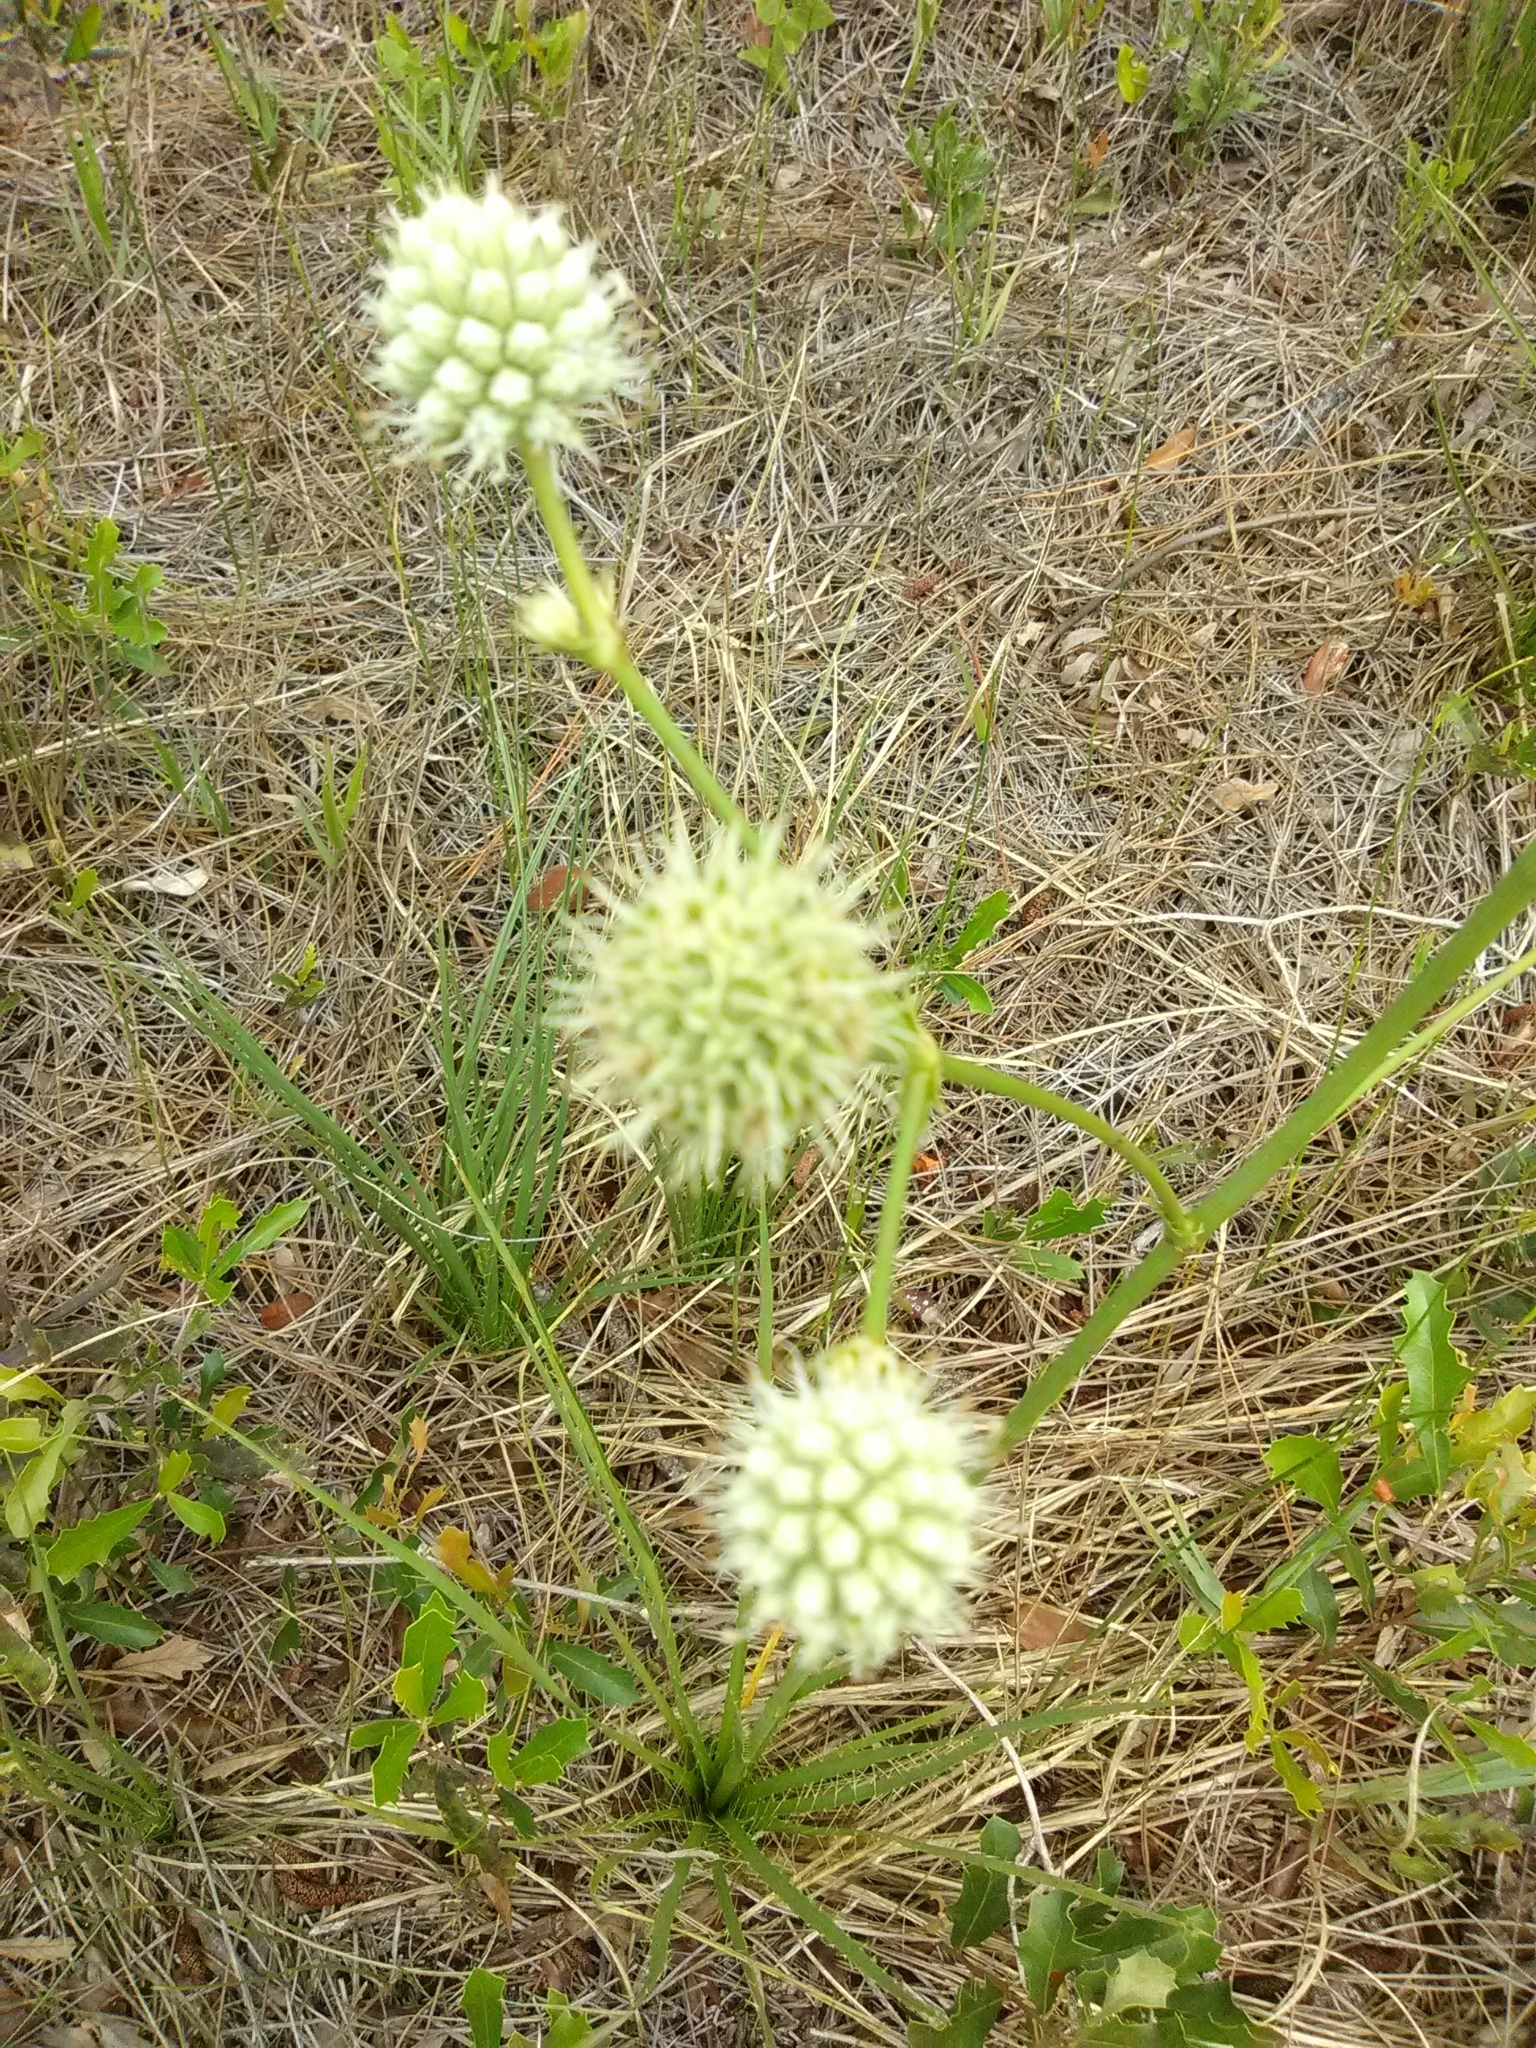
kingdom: Plantae
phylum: Tracheophyta
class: Magnoliopsida
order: Apiales
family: Apiaceae
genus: Eryngium
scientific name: Eryngium yuccifolium
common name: Button eryngo
